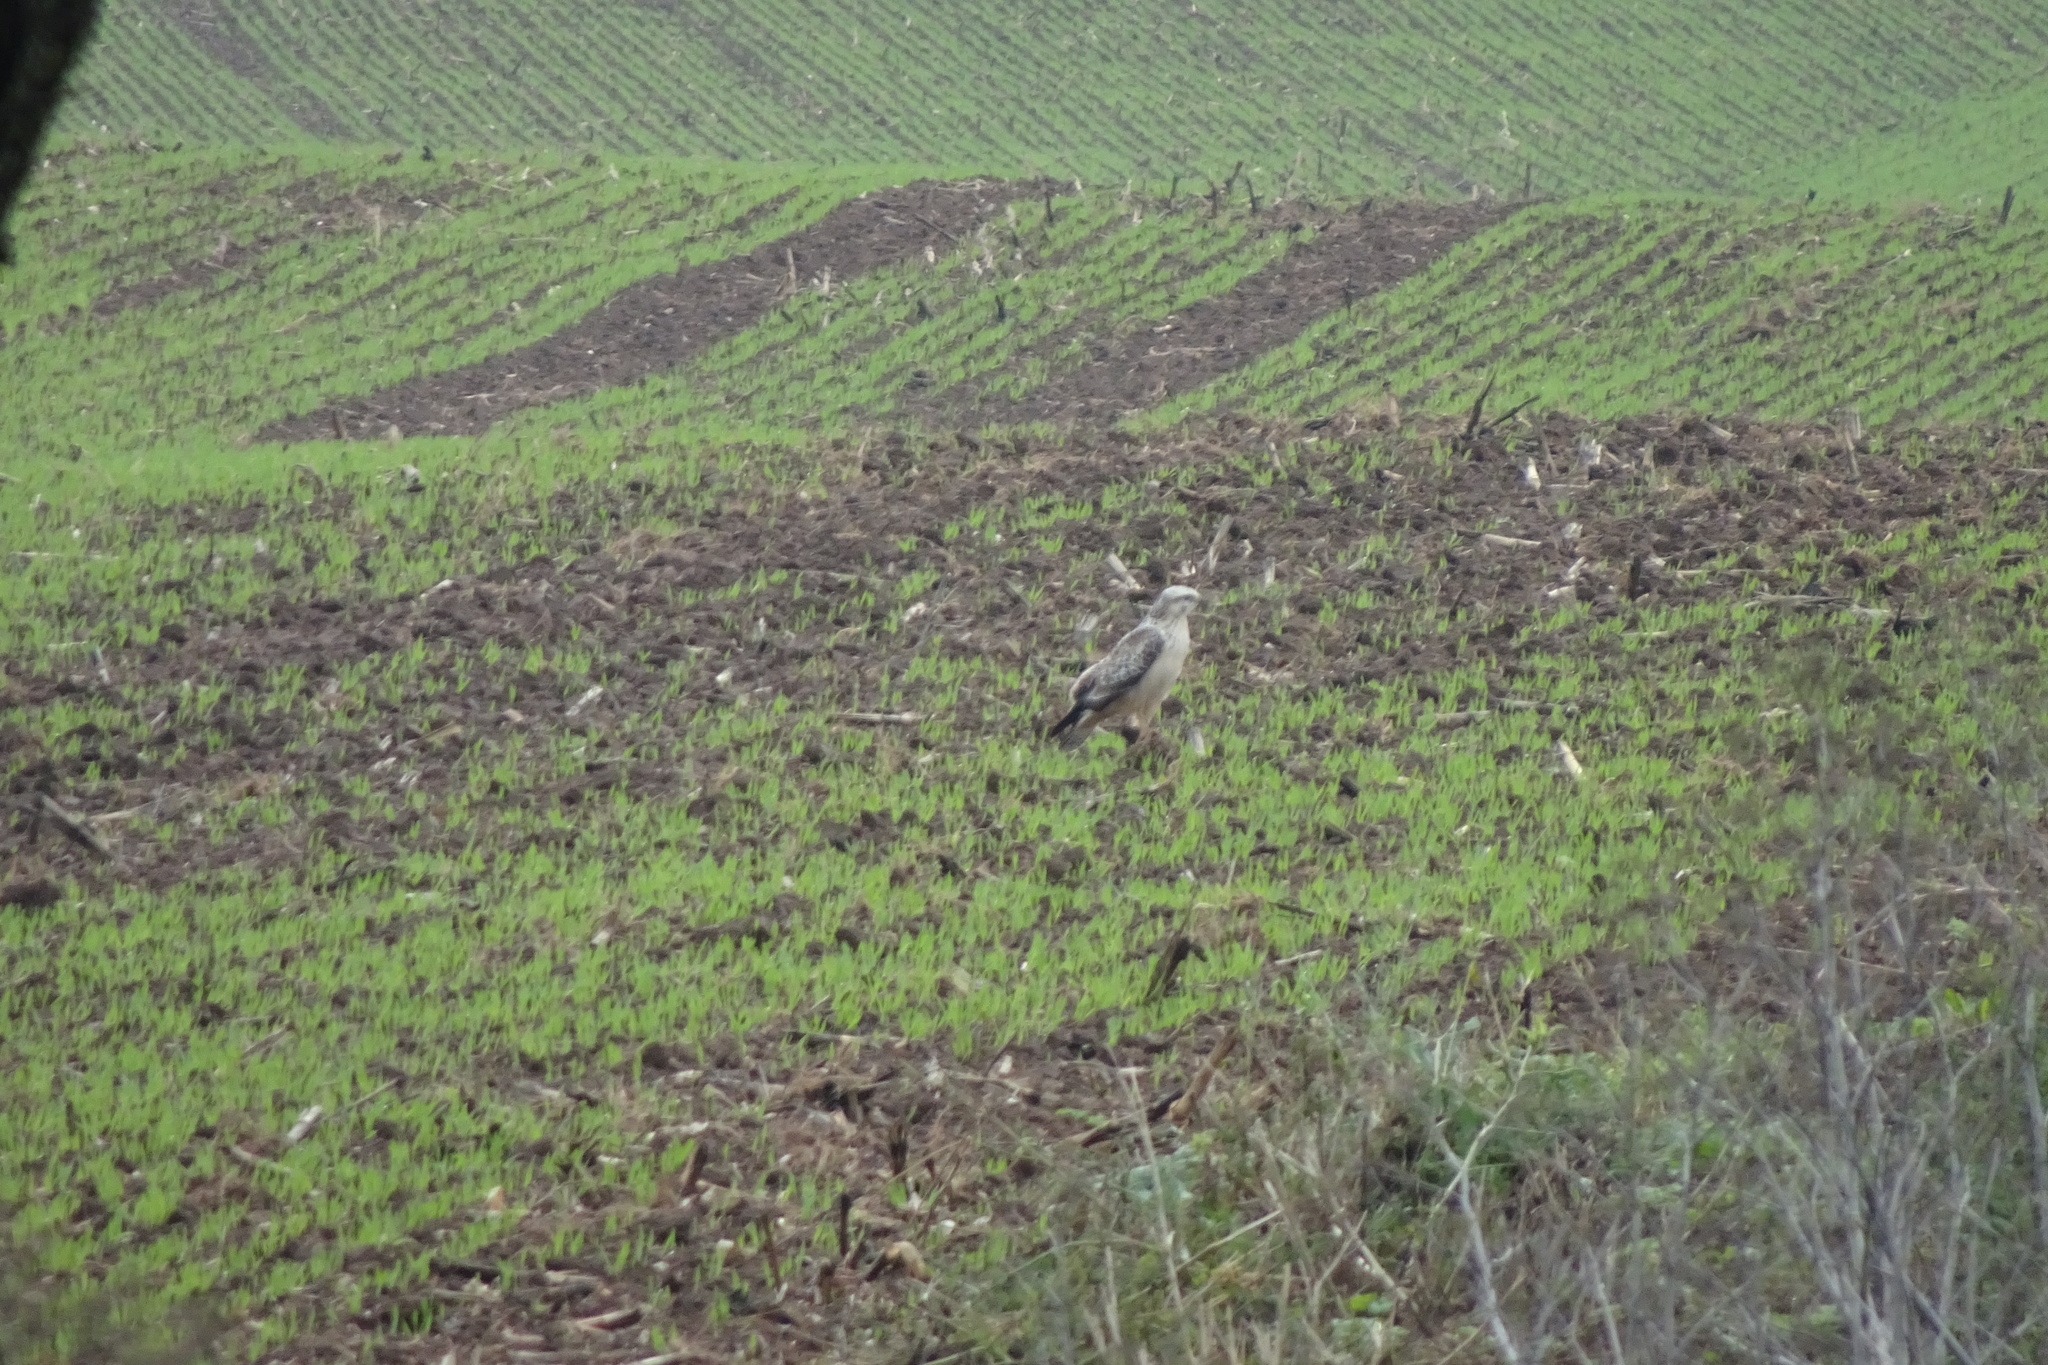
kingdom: Animalia
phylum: Chordata
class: Aves
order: Accipitriformes
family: Accipitridae
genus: Buteo
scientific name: Buteo buteo
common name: Common buzzard
